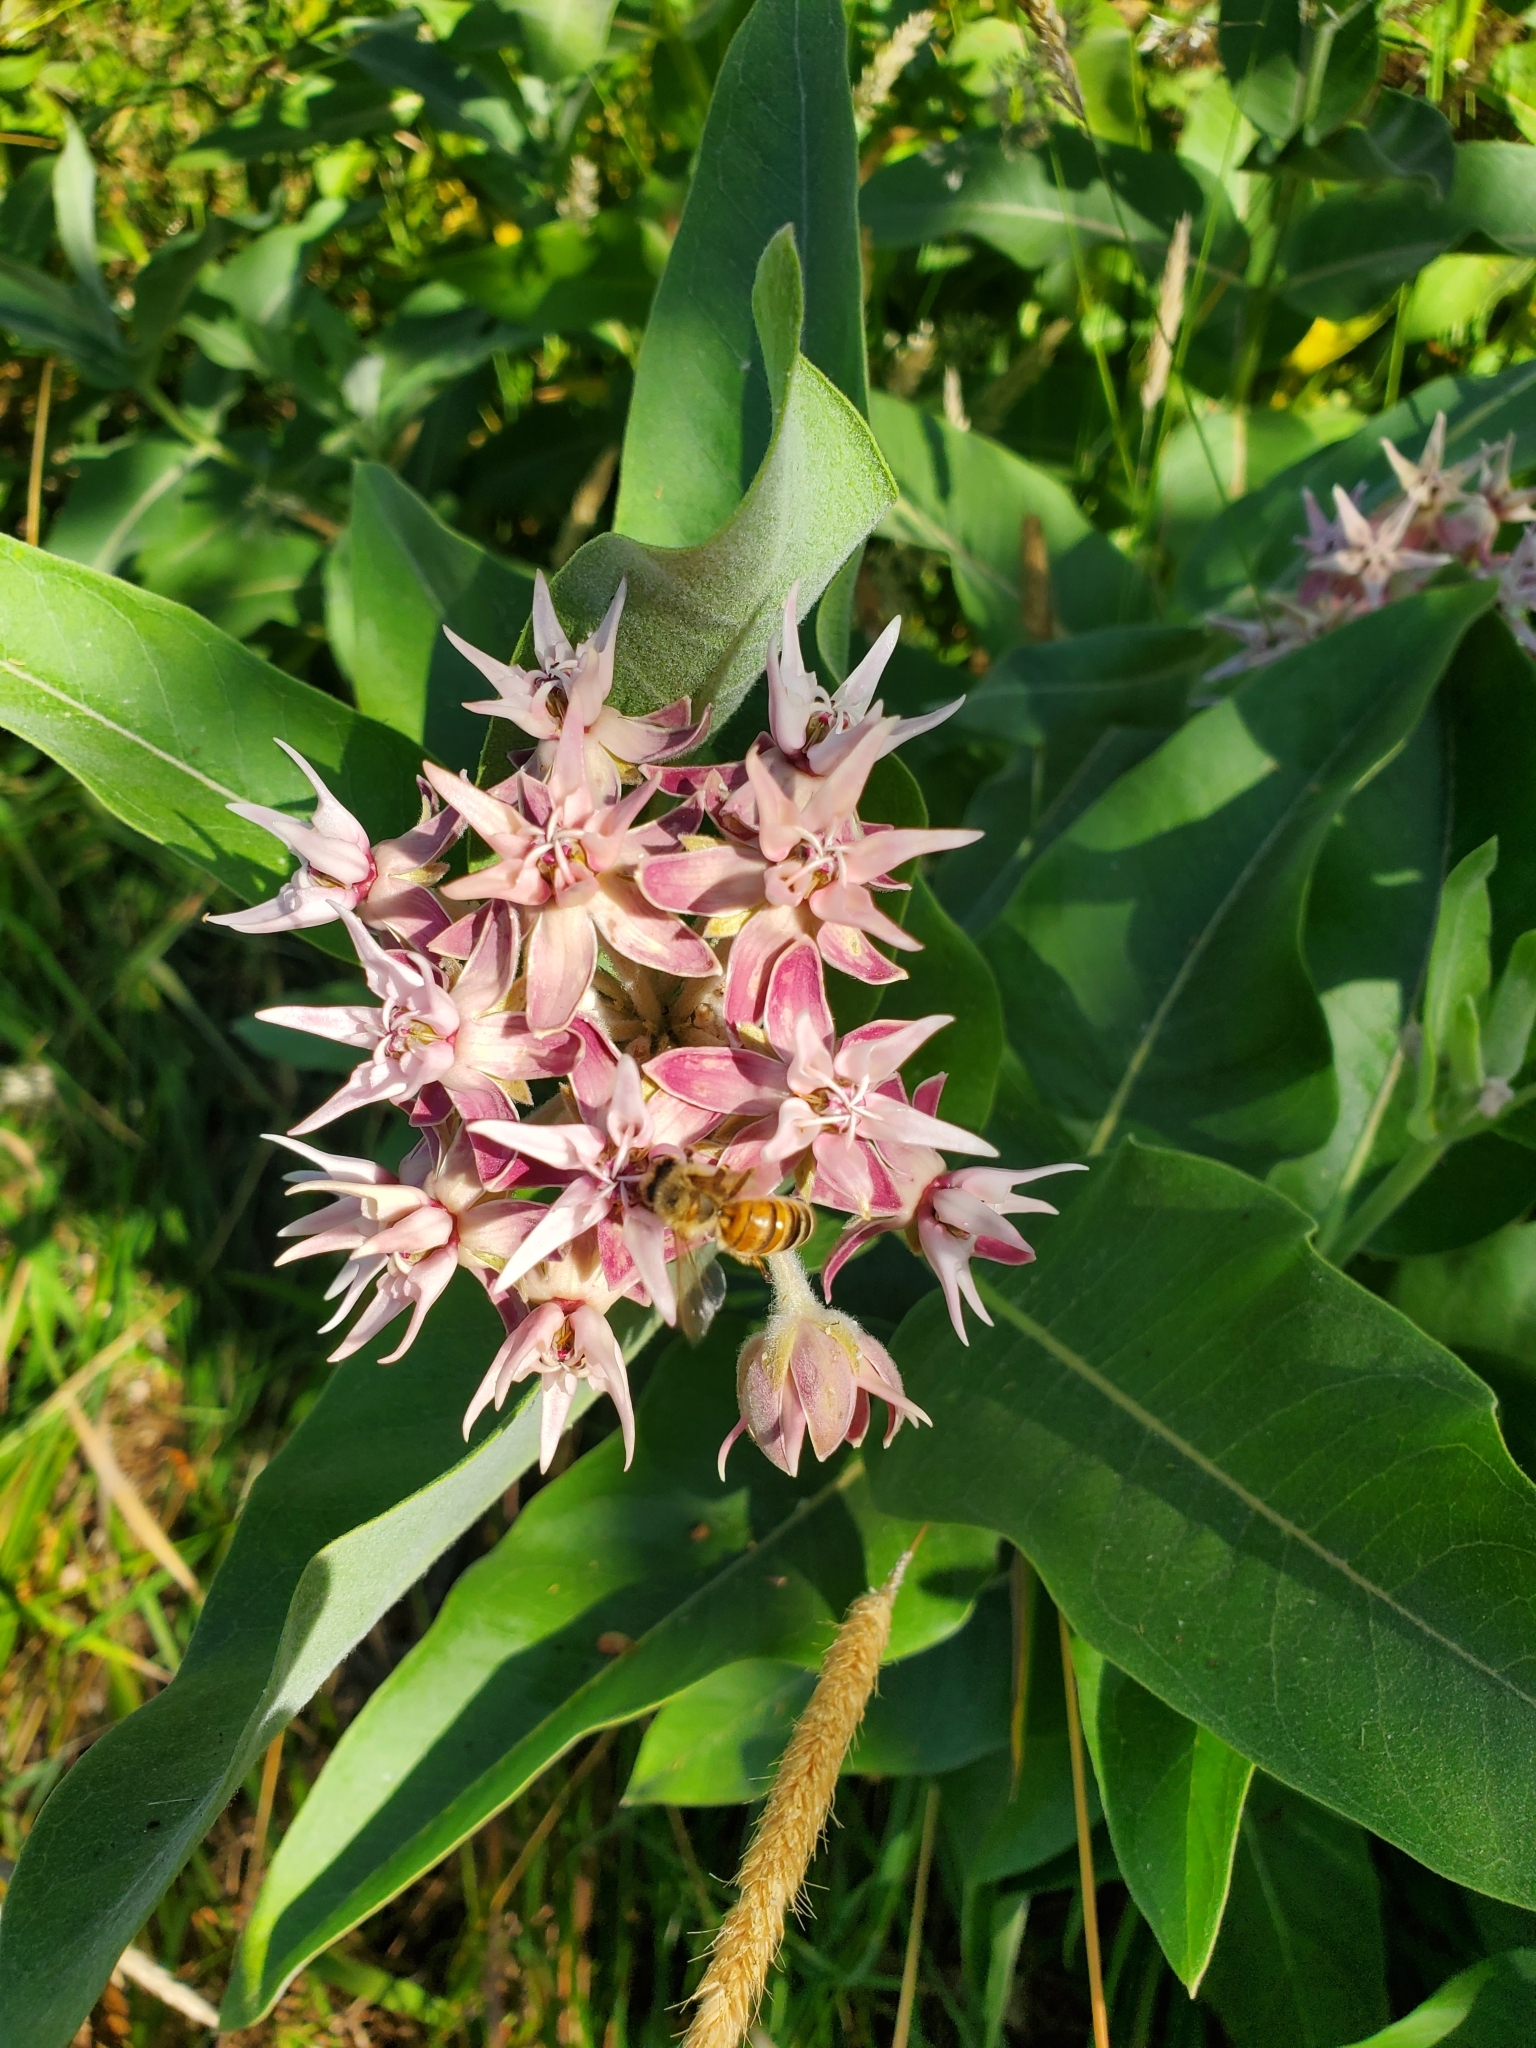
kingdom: Plantae
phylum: Tracheophyta
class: Magnoliopsida
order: Gentianales
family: Apocynaceae
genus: Asclepias
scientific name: Asclepias speciosa
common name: Showy milkweed
